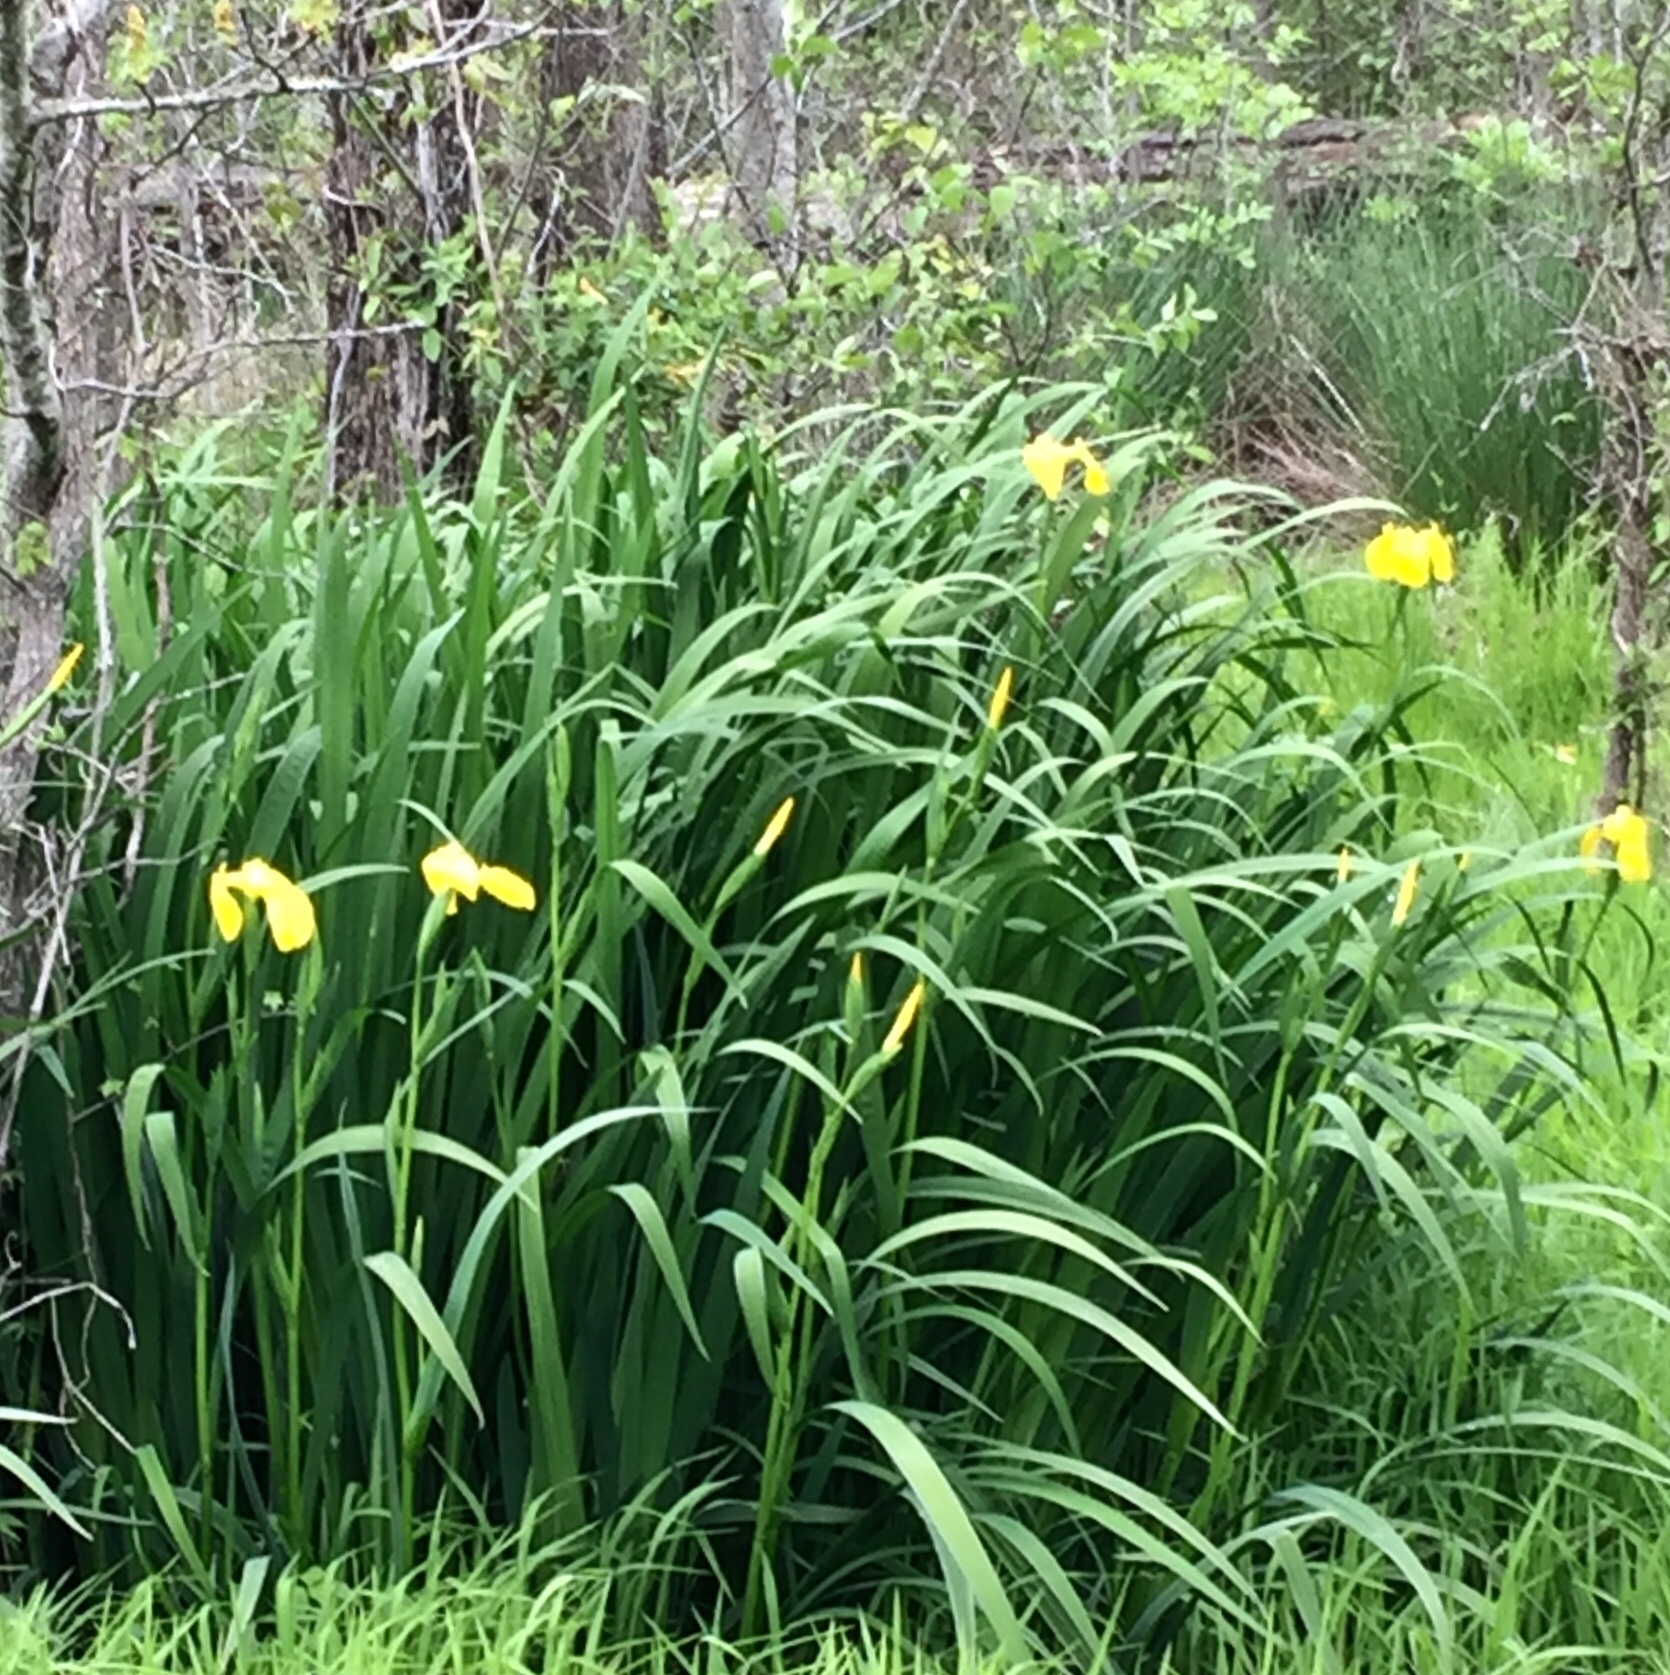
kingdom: Plantae
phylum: Tracheophyta
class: Liliopsida
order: Asparagales
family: Iridaceae
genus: Iris
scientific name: Iris pseudacorus
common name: Yellow flag
